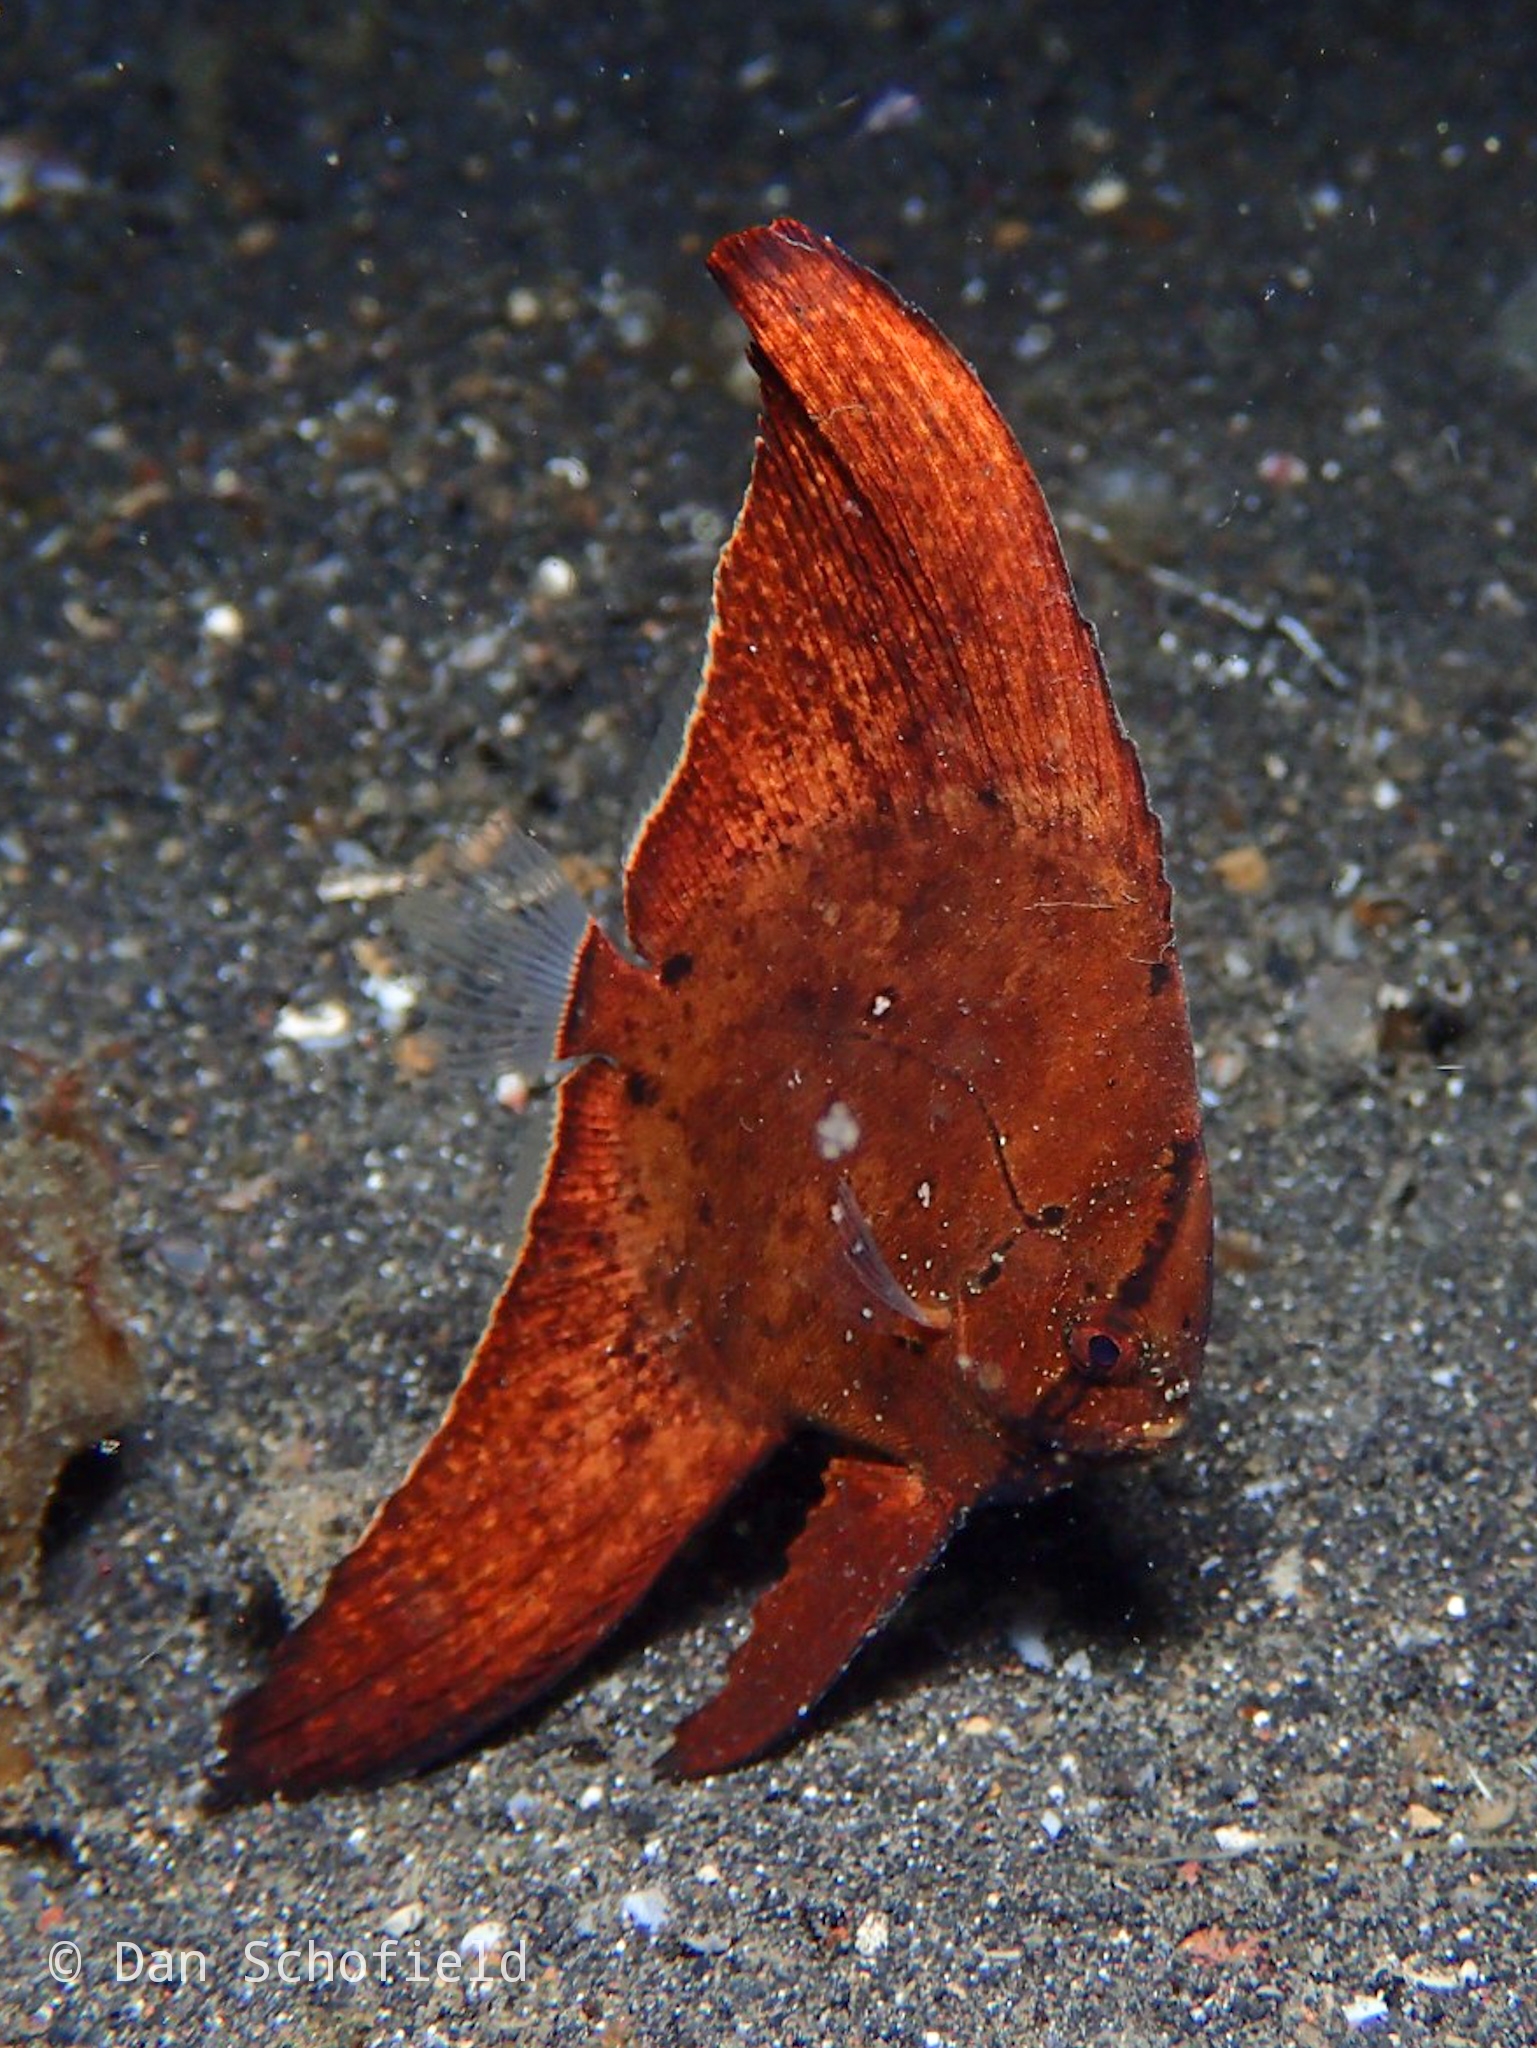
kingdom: Animalia
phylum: Chordata
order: Perciformes
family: Ephippidae
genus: Platax
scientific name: Platax orbicularis
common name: Batfish
